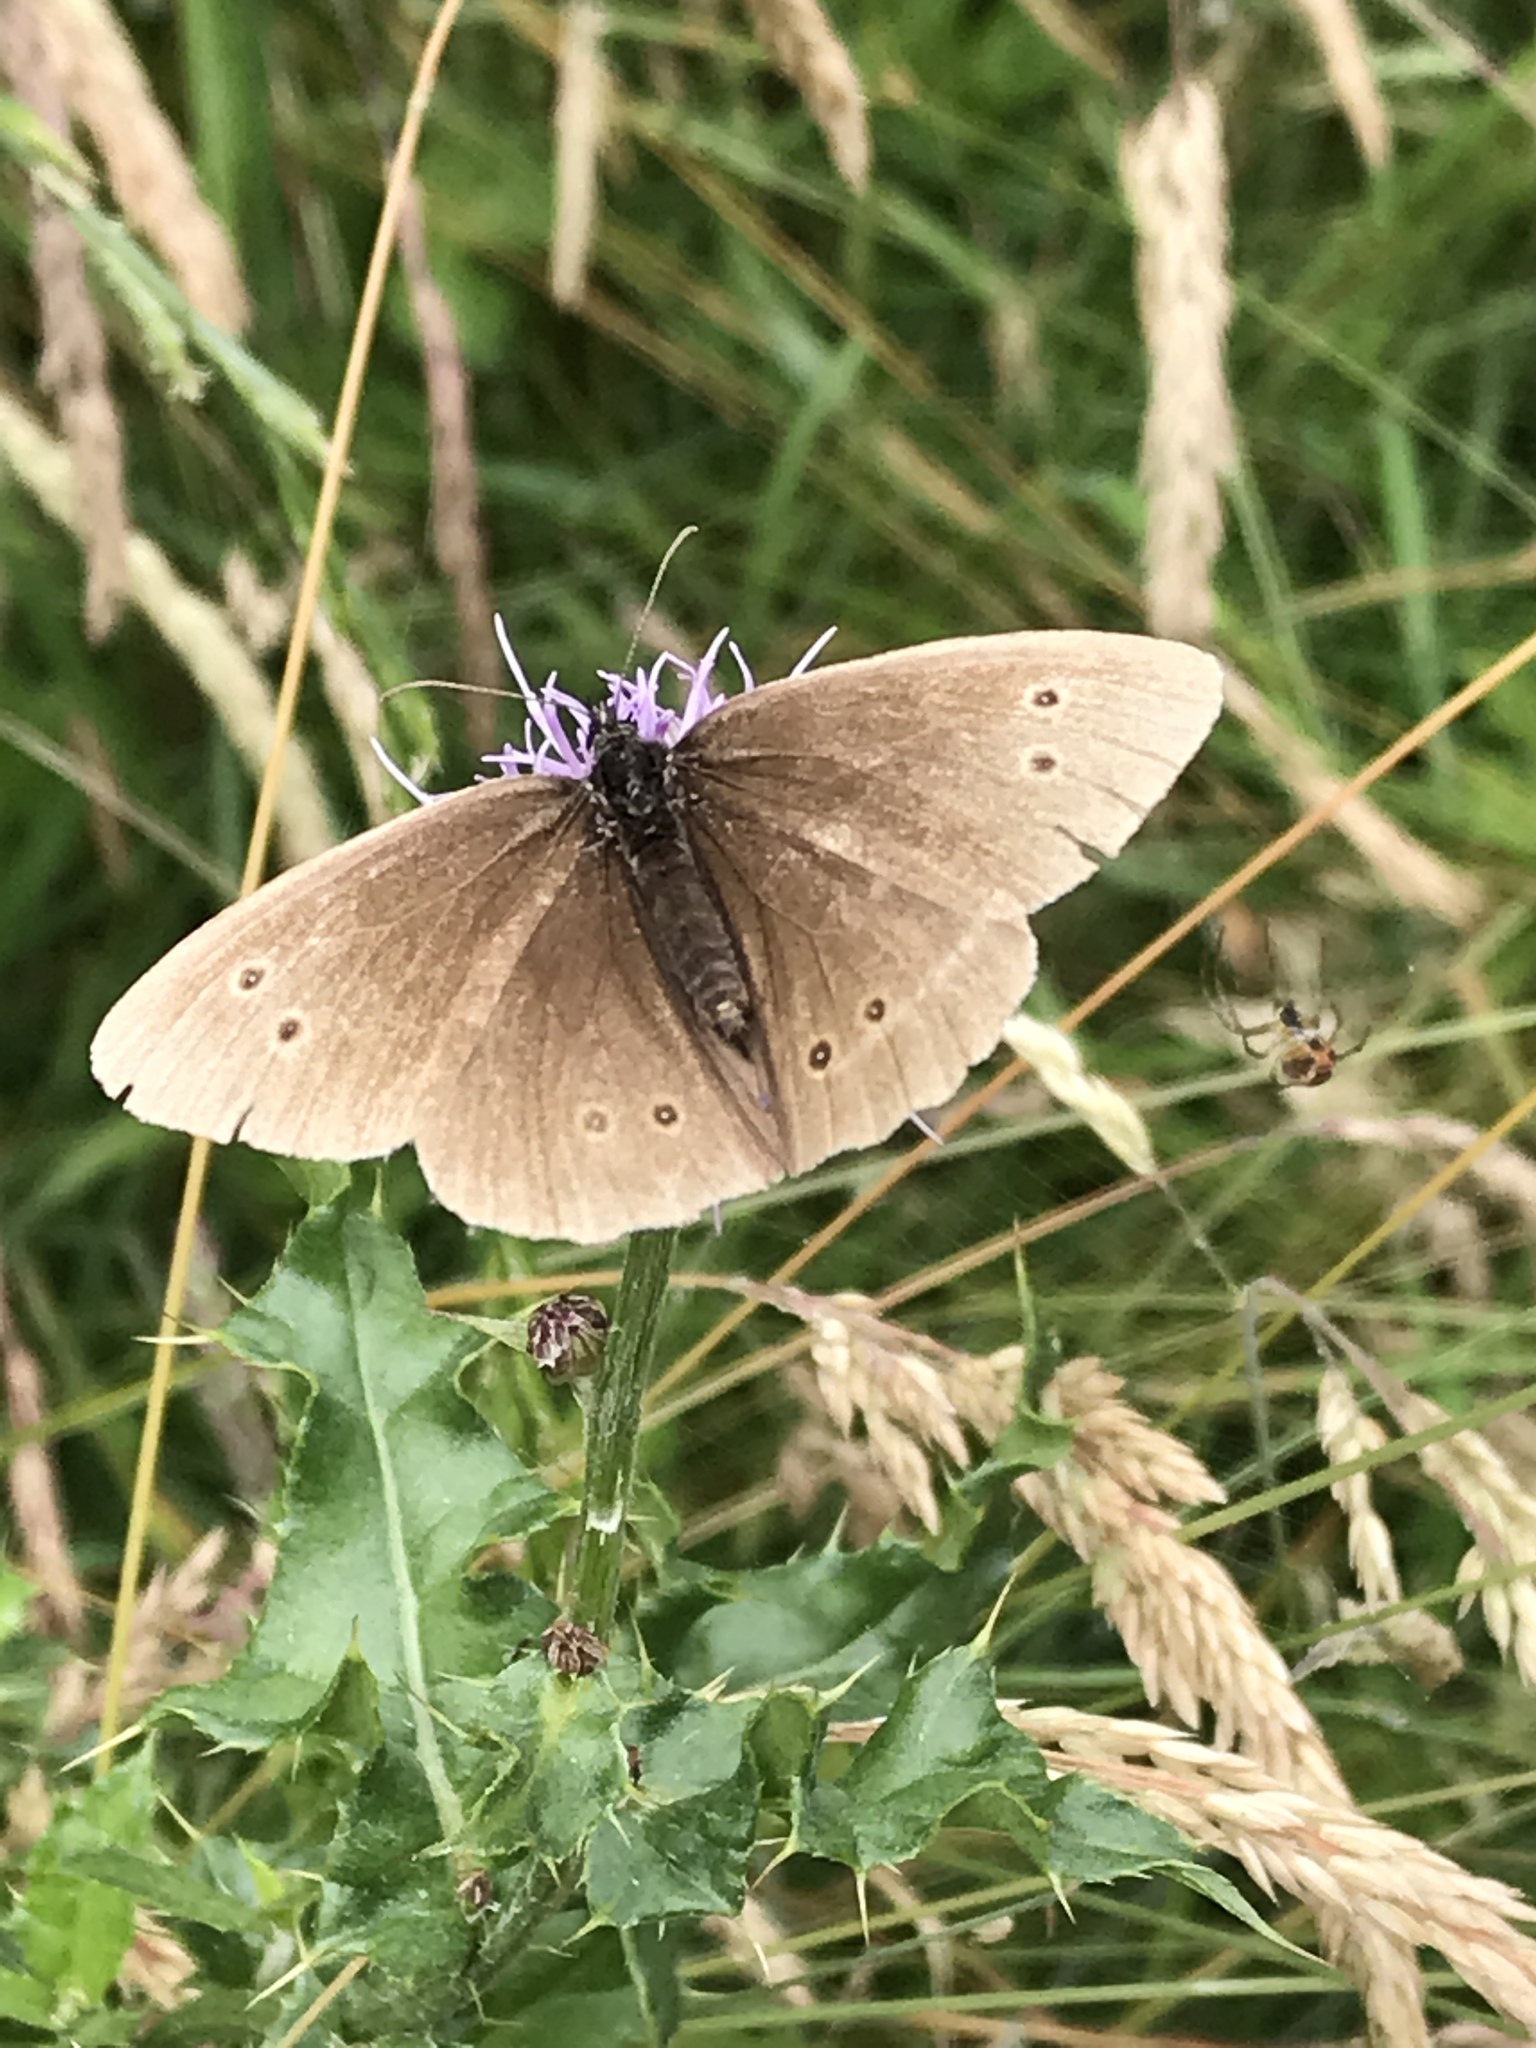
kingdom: Animalia
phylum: Arthropoda
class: Insecta
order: Lepidoptera
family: Nymphalidae
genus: Aphantopus
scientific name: Aphantopus hyperantus
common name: Ringlet
